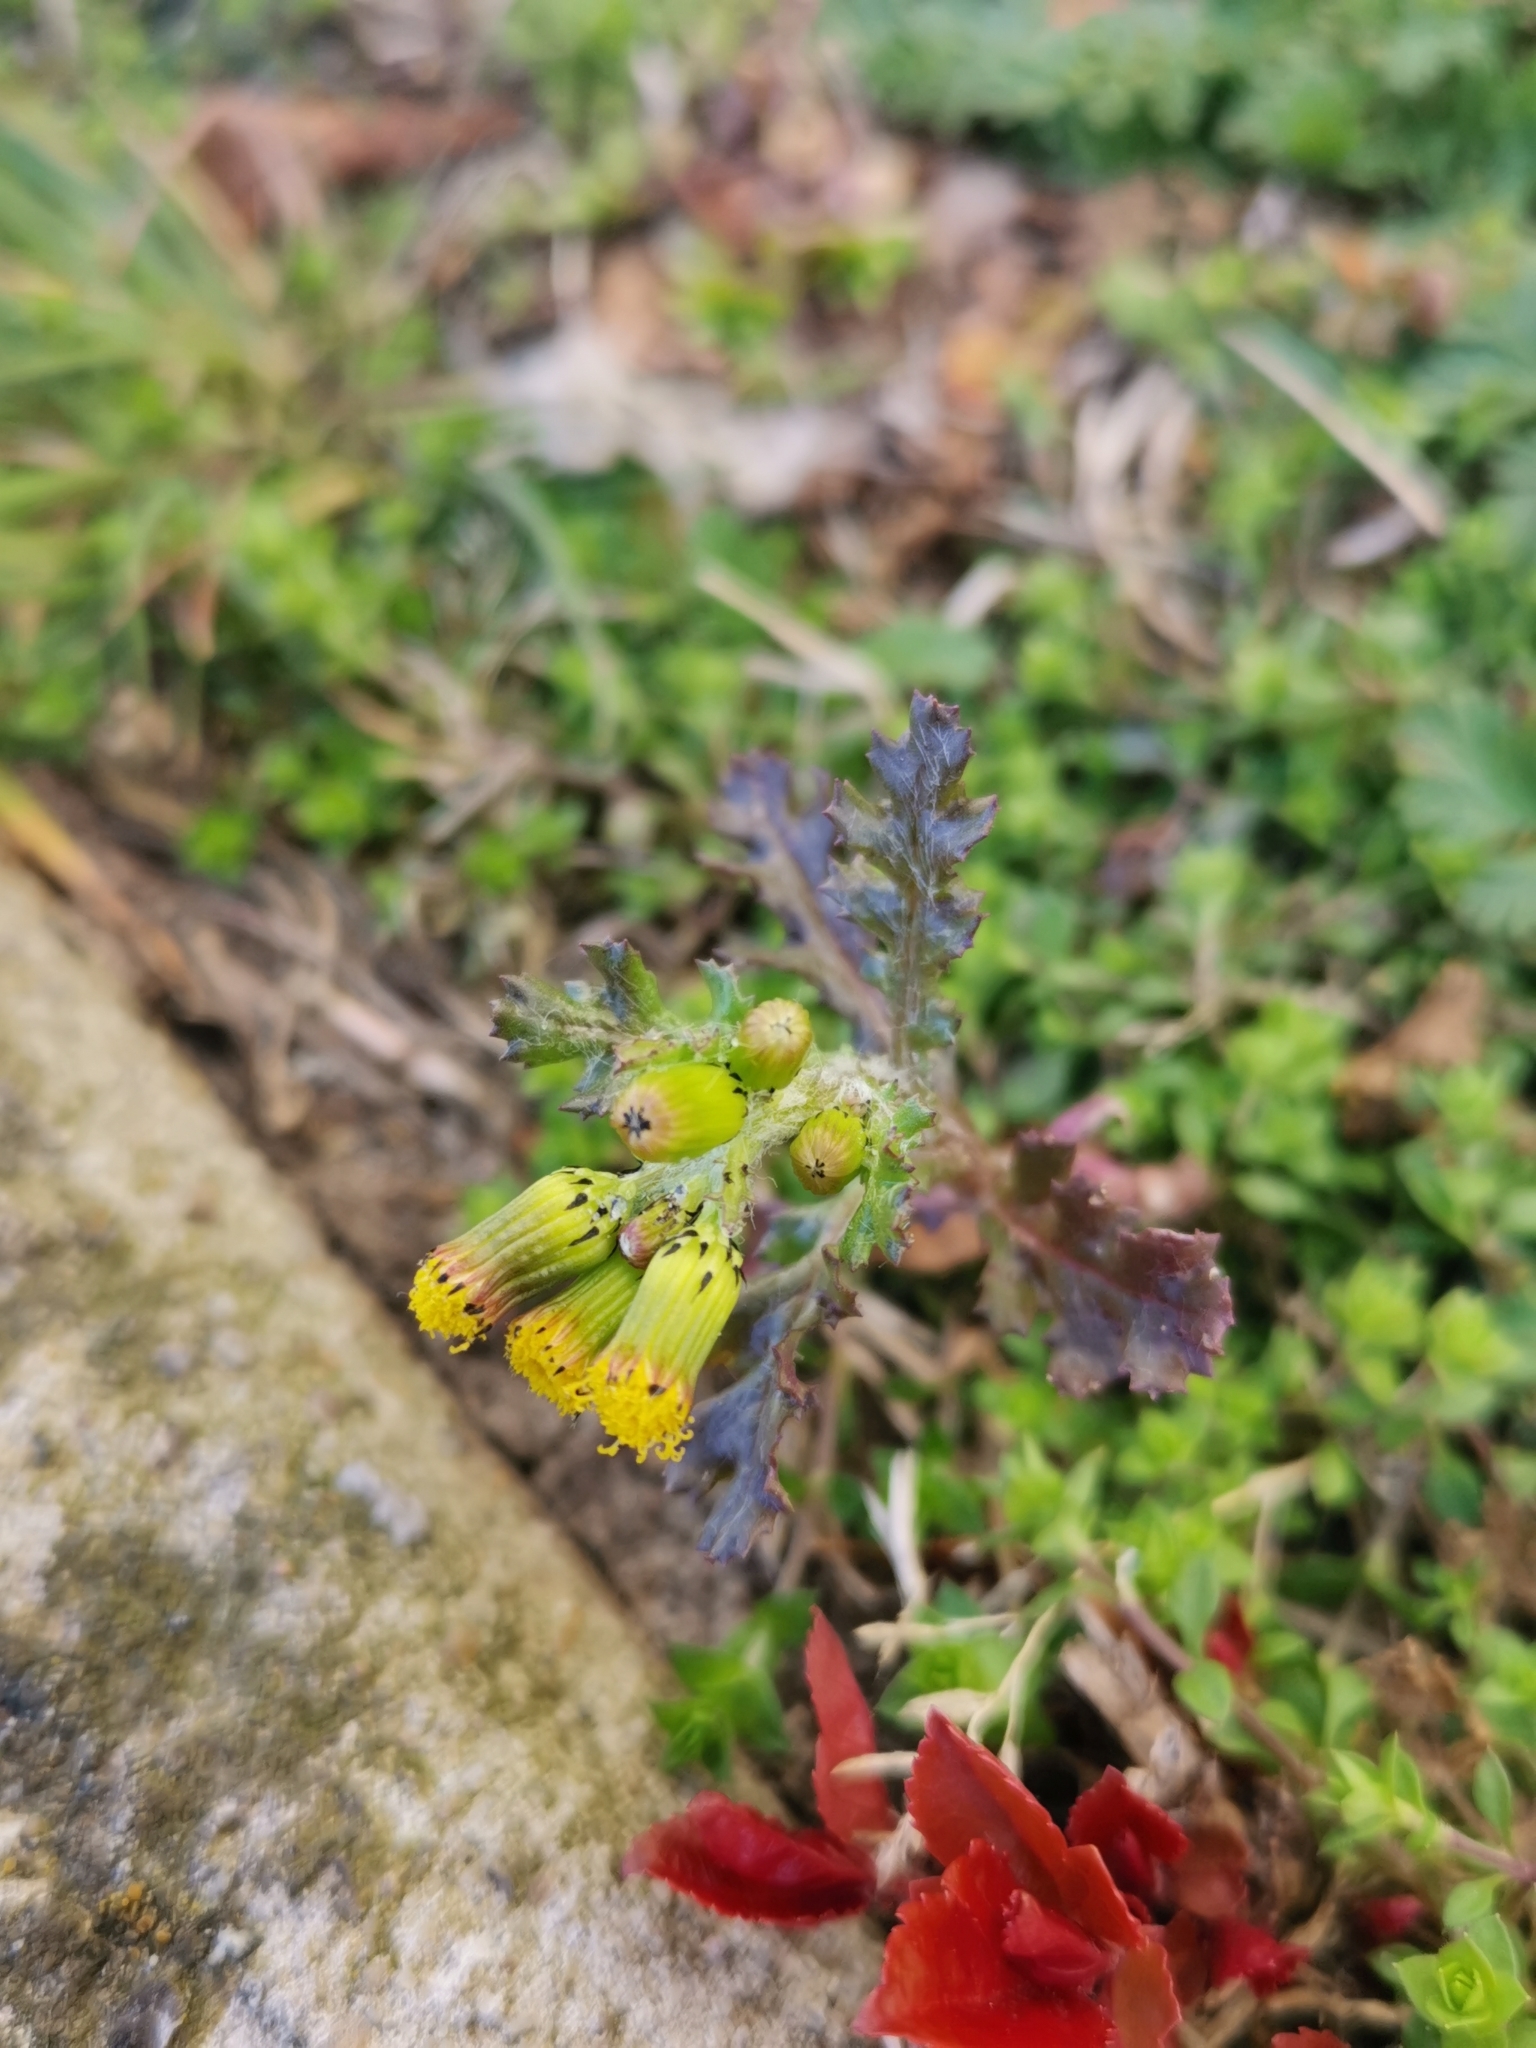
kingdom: Plantae
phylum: Tracheophyta
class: Magnoliopsida
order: Asterales
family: Asteraceae
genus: Senecio
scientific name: Senecio vulgaris
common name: Old-man-in-the-spring
